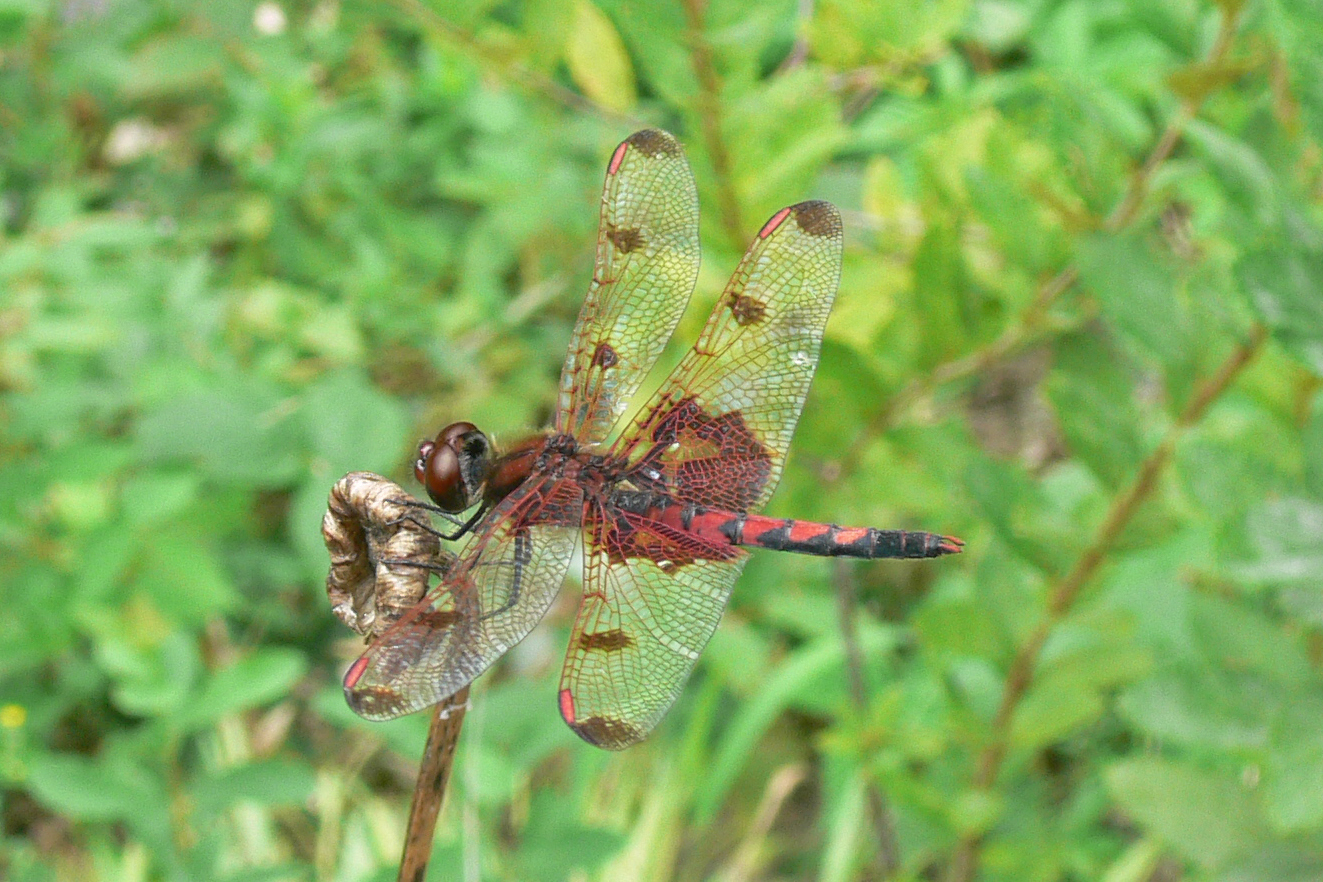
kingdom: Animalia
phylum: Arthropoda
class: Insecta
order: Odonata
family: Libellulidae
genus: Celithemis
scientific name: Celithemis elisa
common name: Calico pennant
